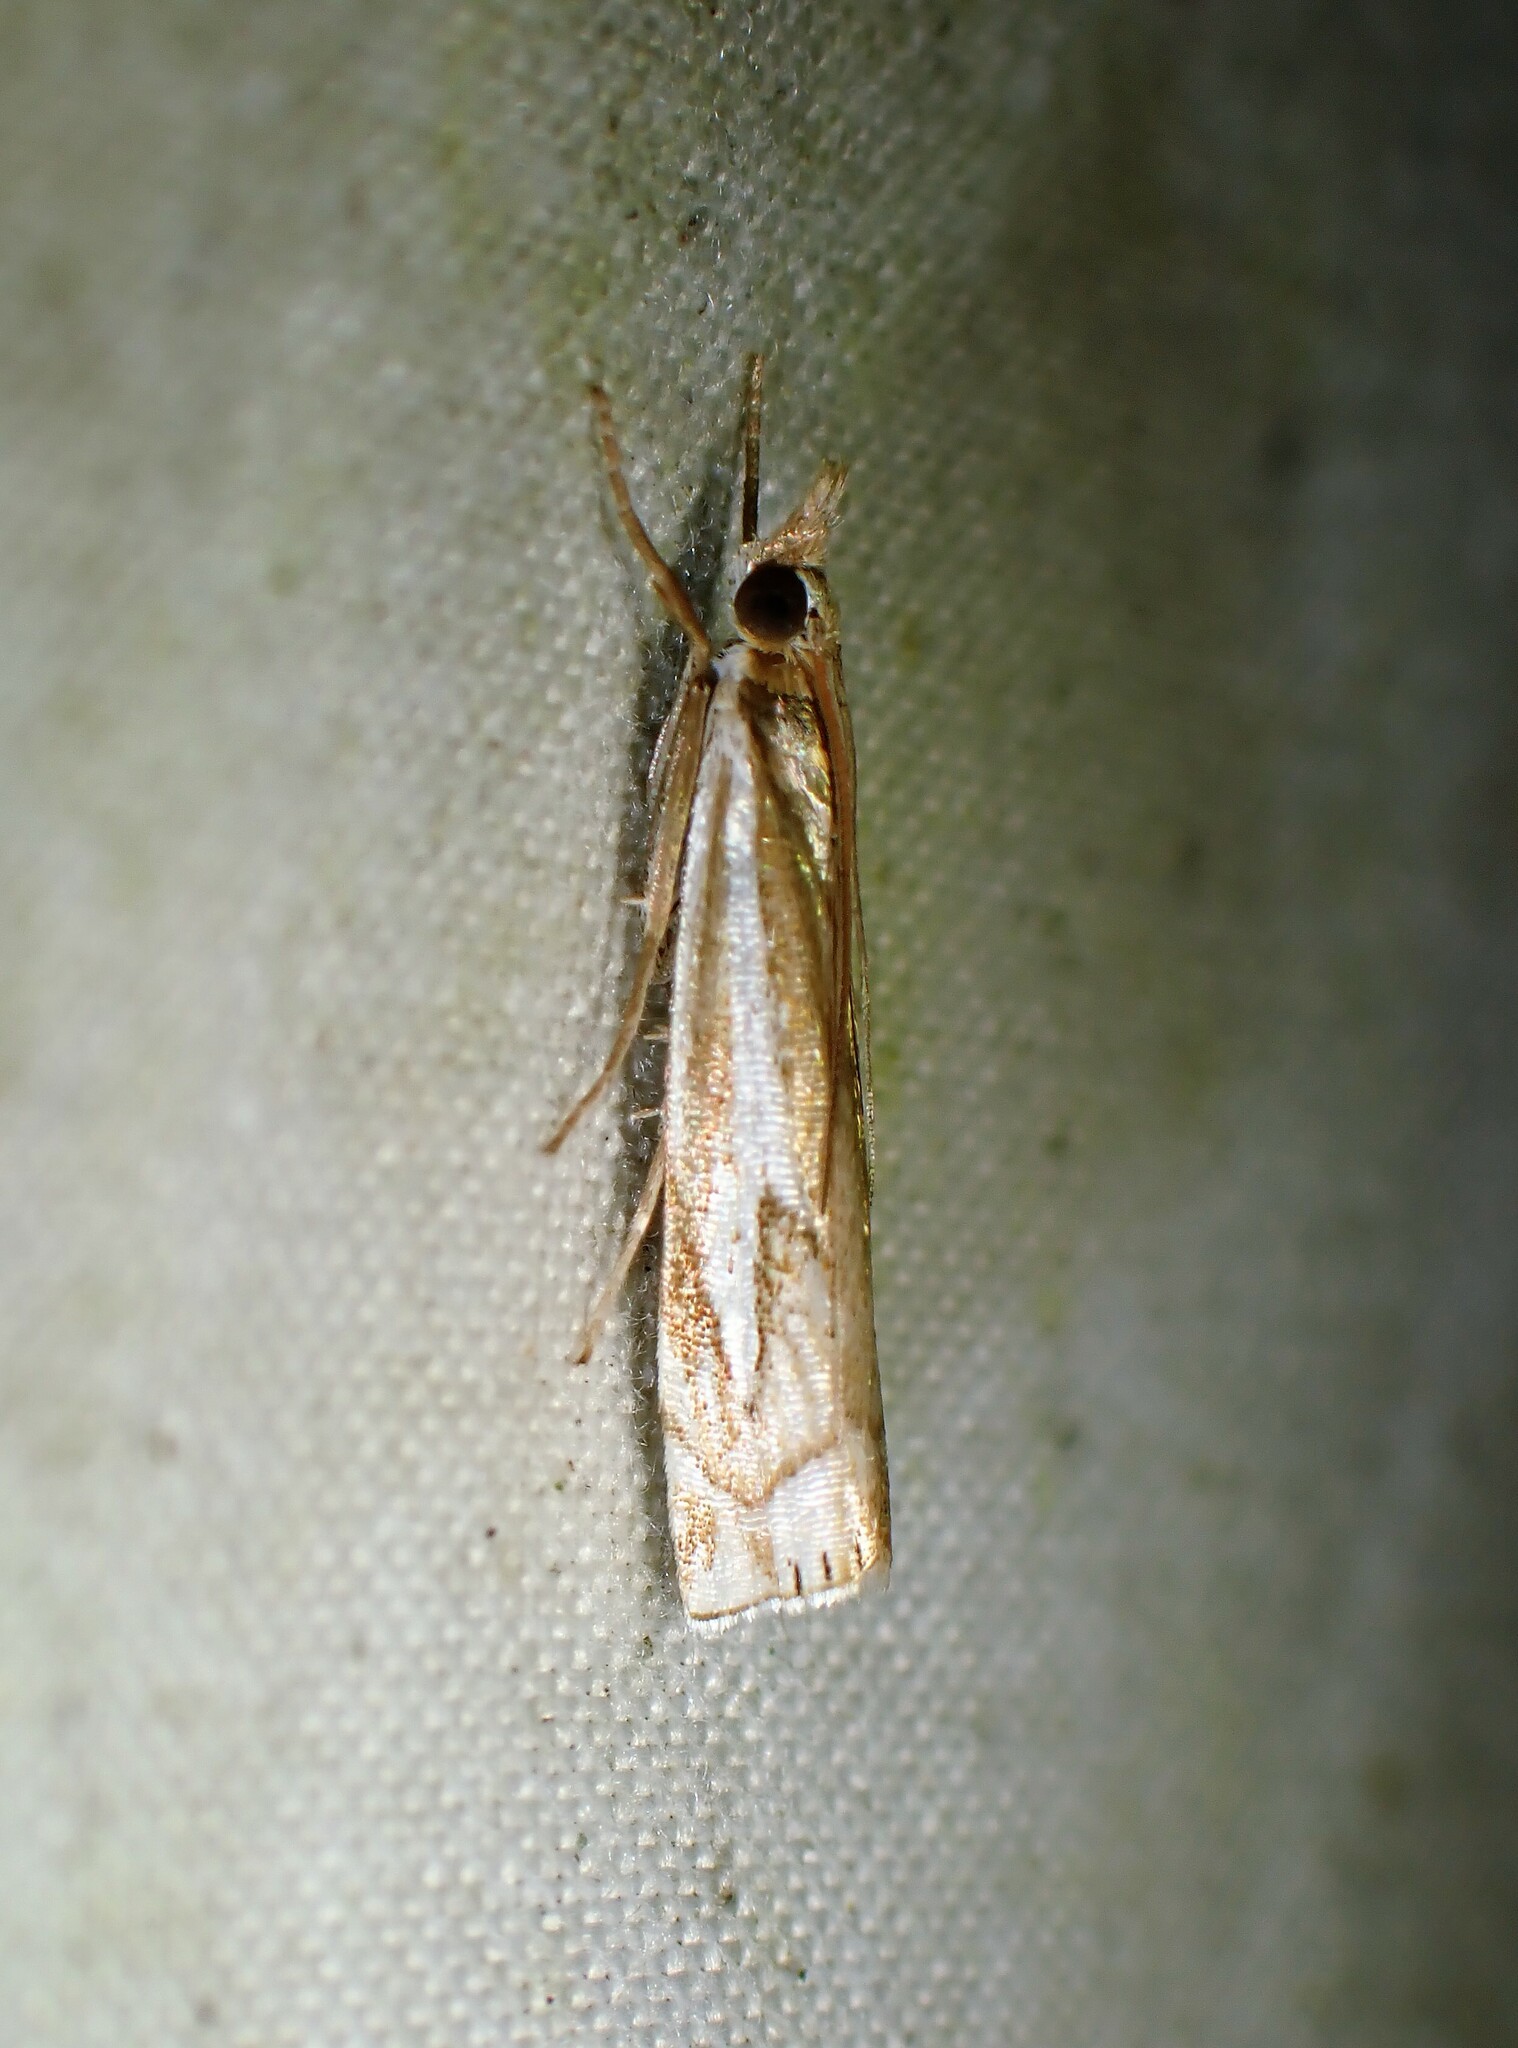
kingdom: Animalia
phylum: Arthropoda
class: Insecta
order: Lepidoptera
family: Crambidae
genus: Crambus
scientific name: Crambus bidens
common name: Forked grass-veneer
